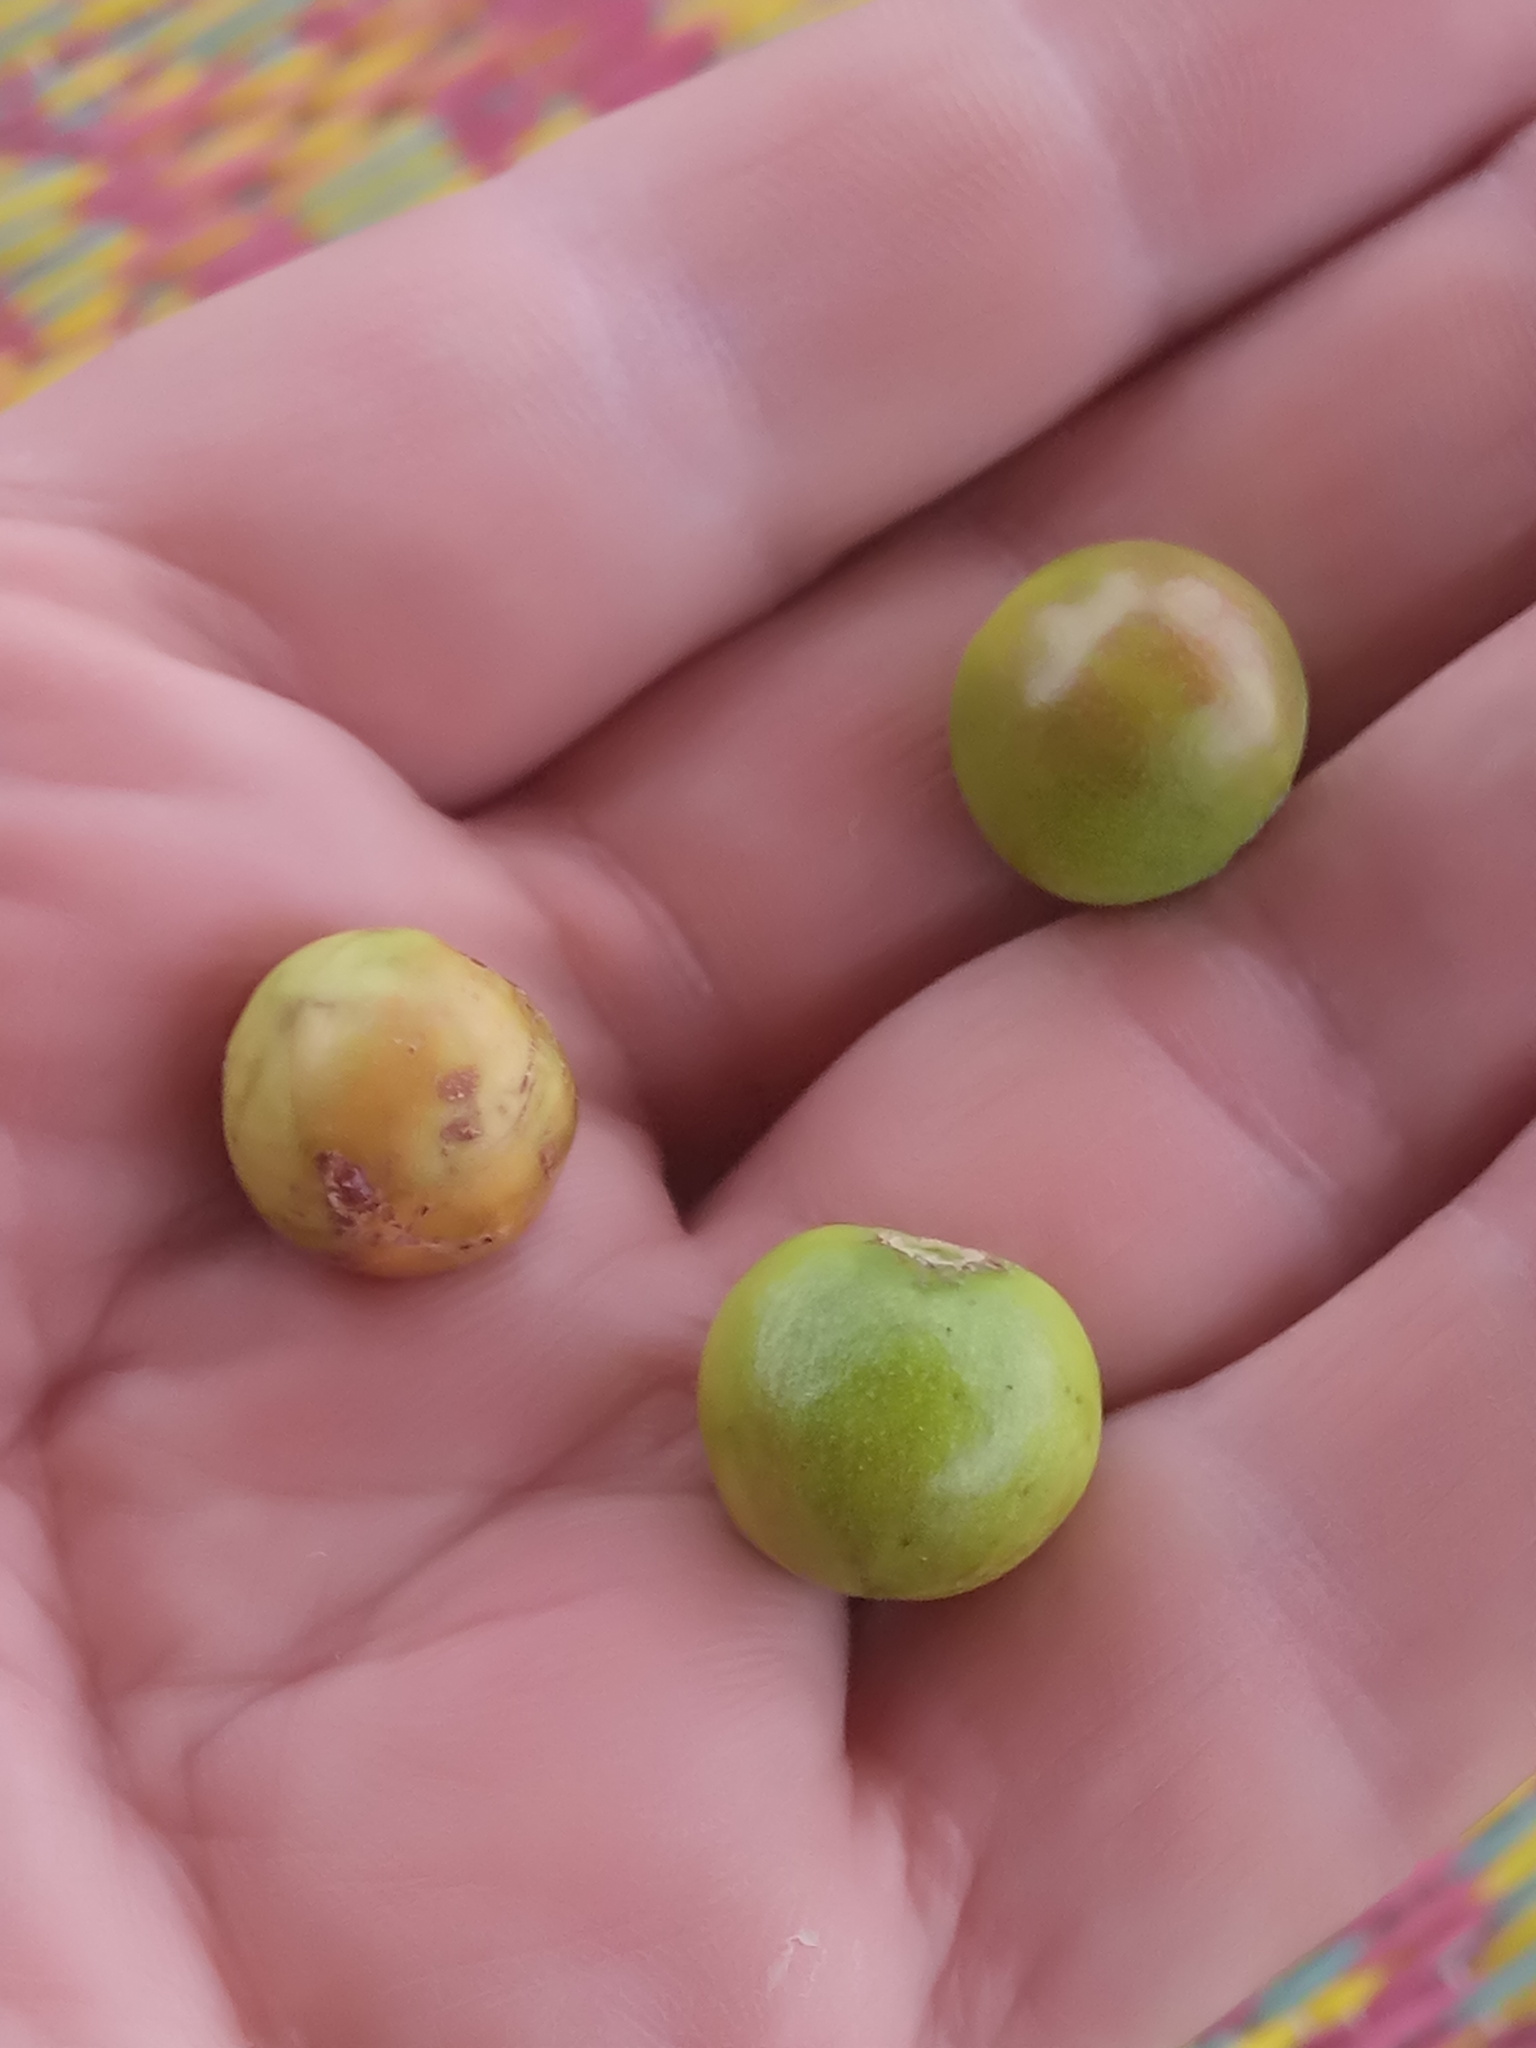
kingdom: Plantae
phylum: Tracheophyta
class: Magnoliopsida
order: Rosales
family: Rhamnaceae
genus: Ziziphus
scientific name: Ziziphus spina-christi
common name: Syrian christ-thorn
